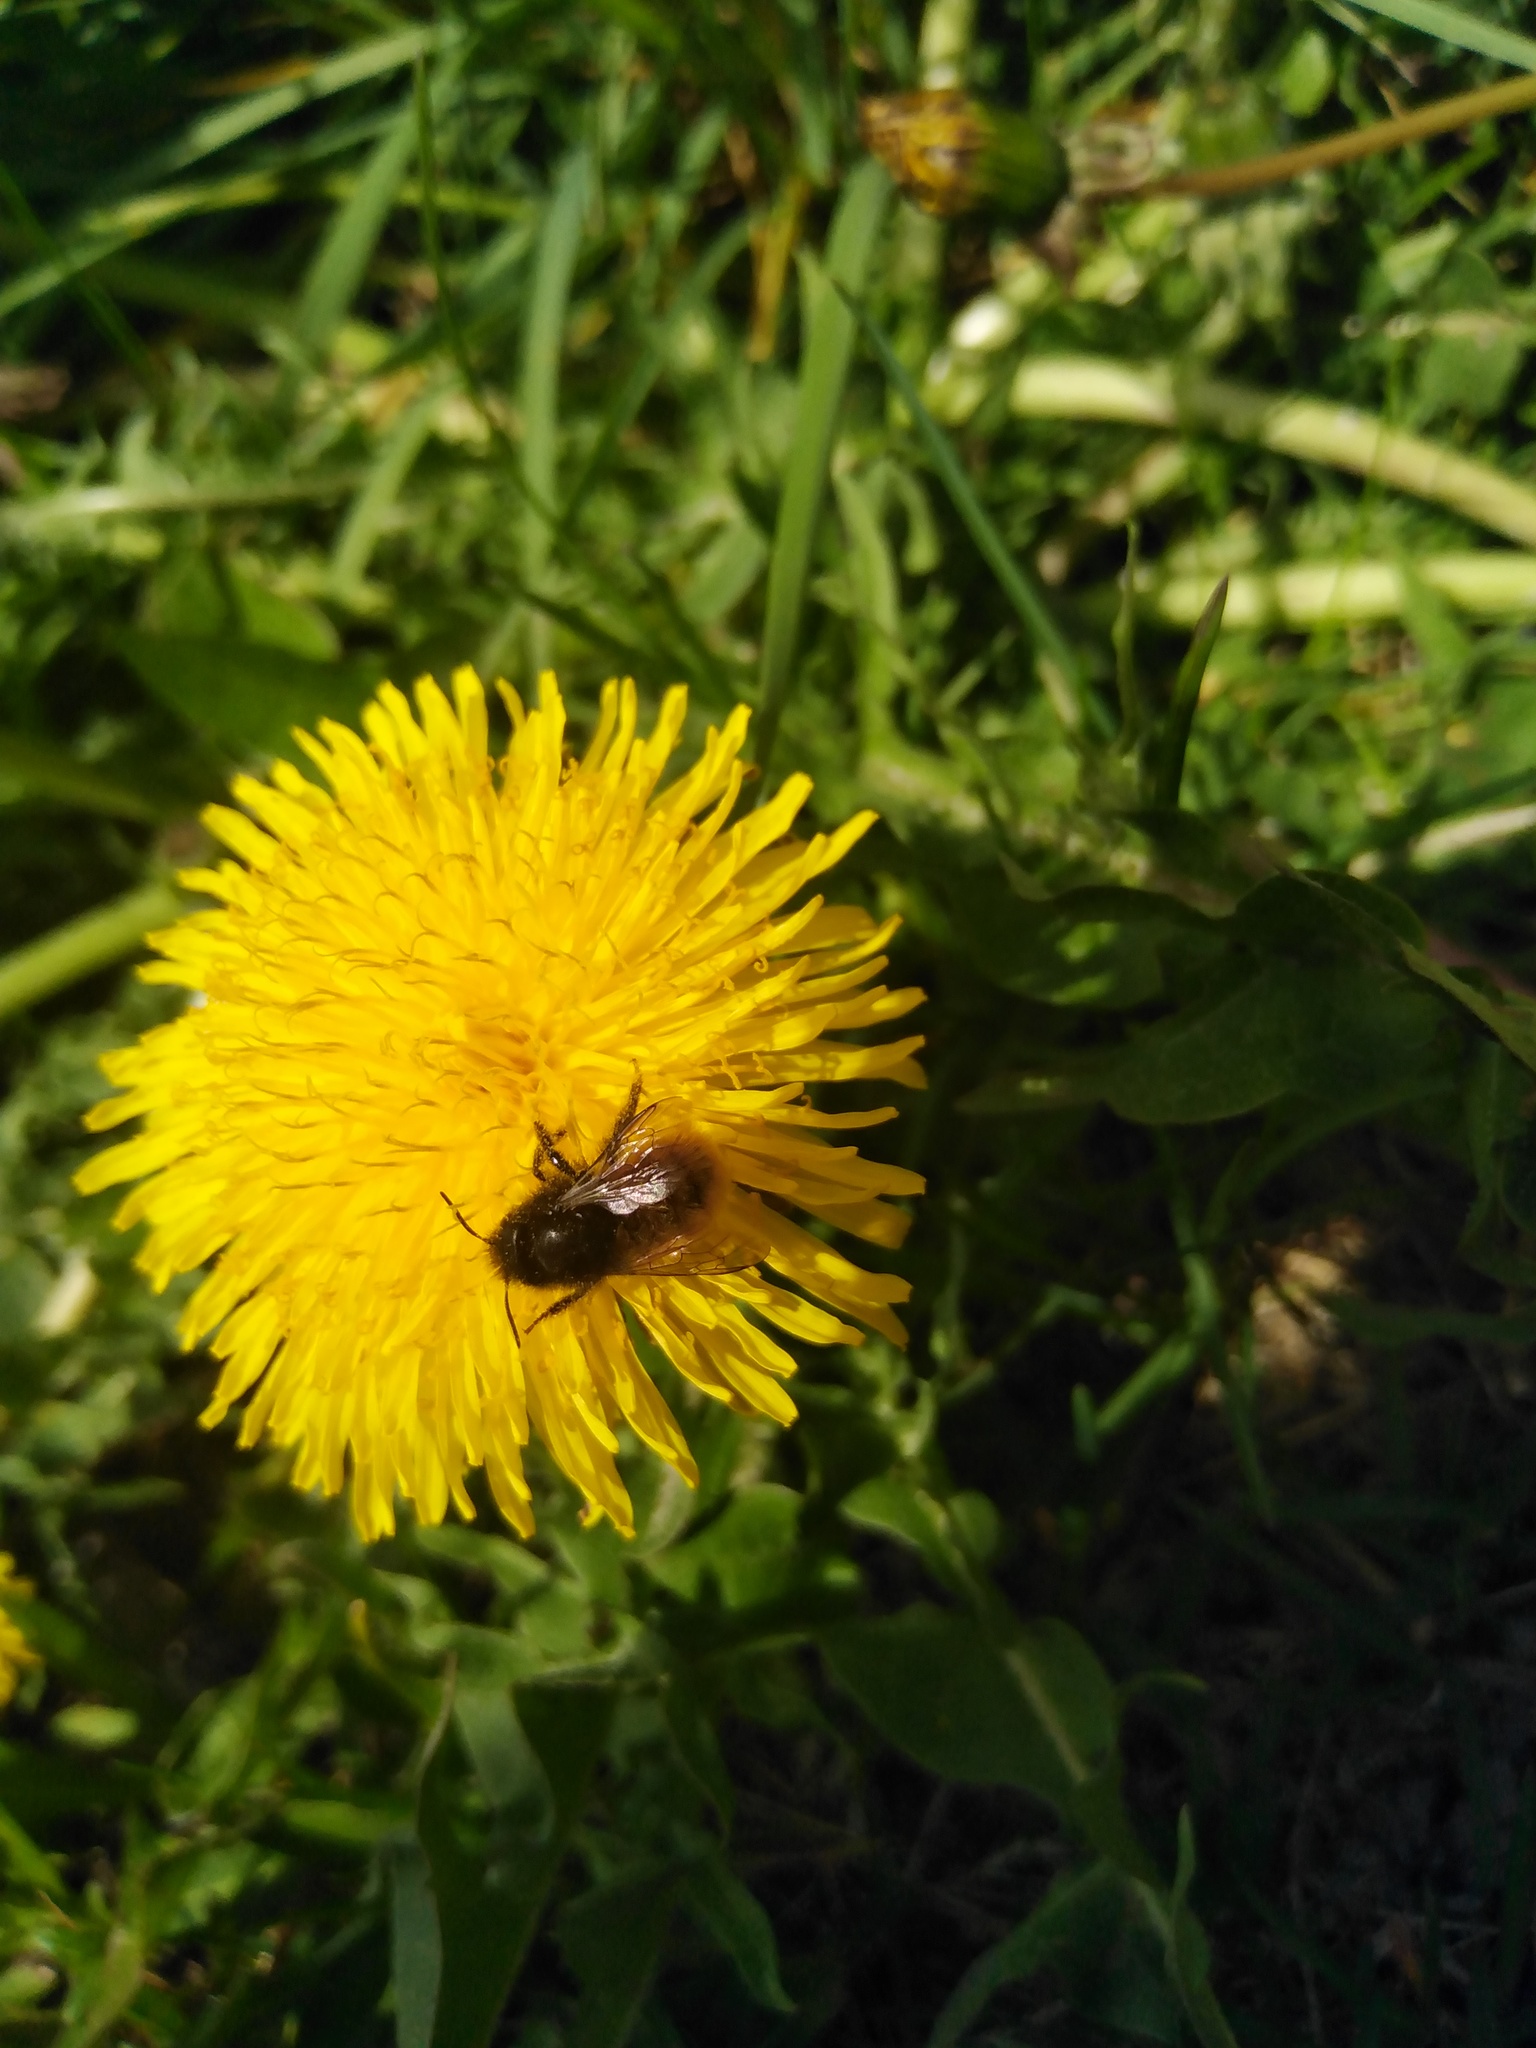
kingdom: Animalia
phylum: Arthropoda
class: Insecta
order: Hymenoptera
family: Megachilidae
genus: Osmia
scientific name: Osmia cornuta
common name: Mason bee
